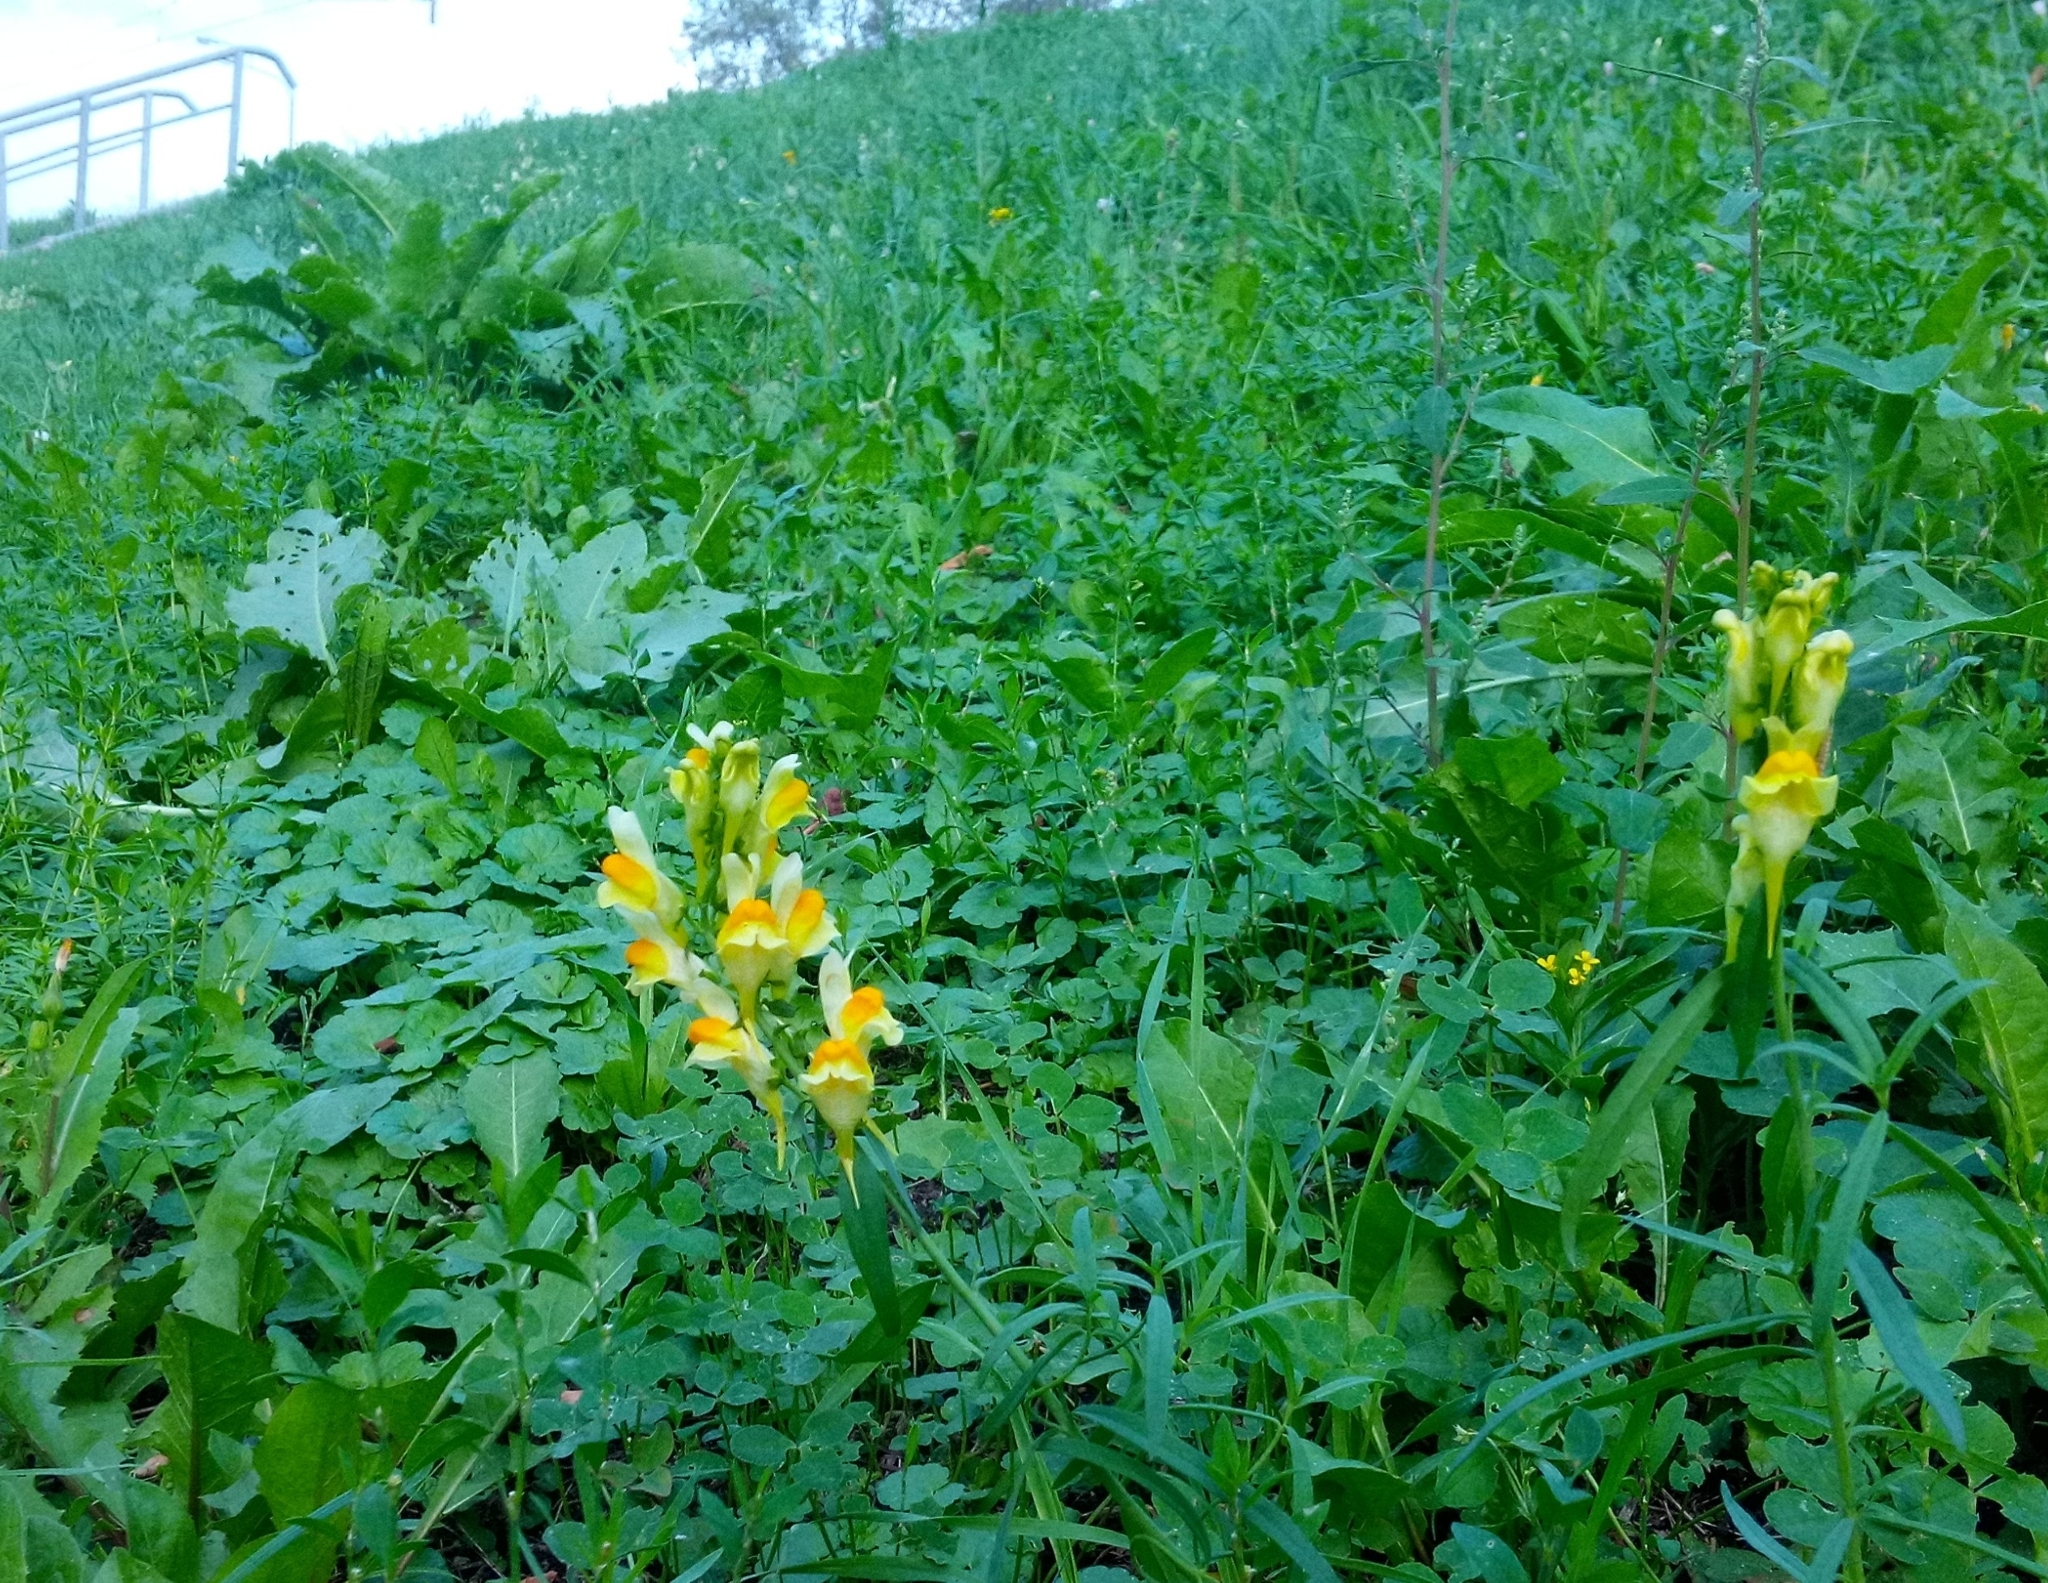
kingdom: Plantae
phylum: Tracheophyta
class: Magnoliopsida
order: Lamiales
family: Plantaginaceae
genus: Linaria
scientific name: Linaria vulgaris
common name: Butter and eggs
